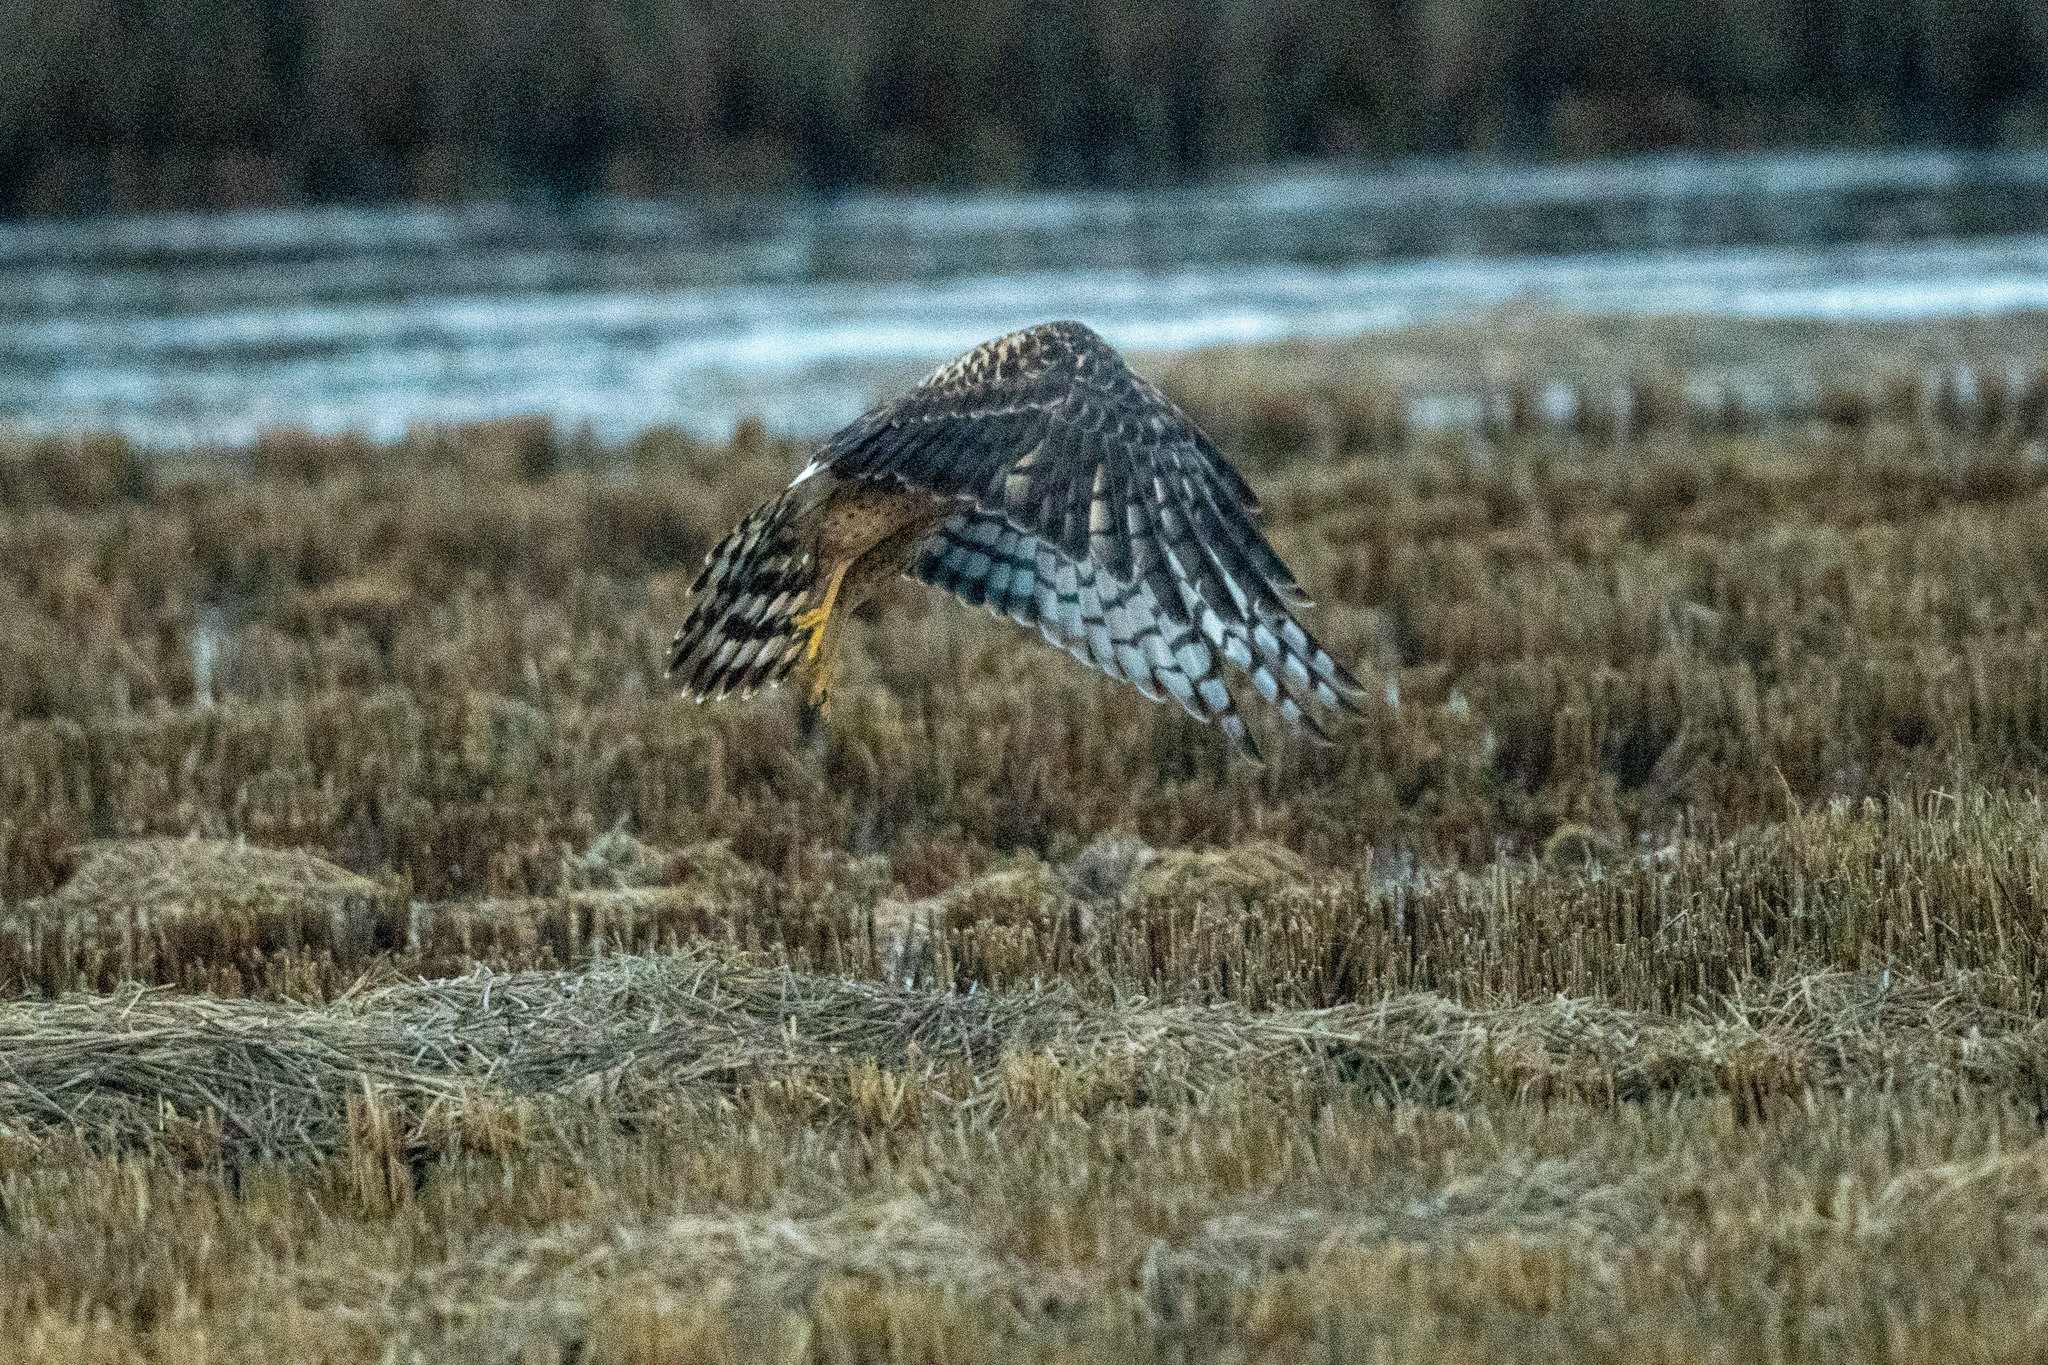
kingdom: Animalia
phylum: Chordata
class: Aves
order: Accipitriformes
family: Accipitridae
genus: Circus
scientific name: Circus cyaneus
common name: Hen harrier
